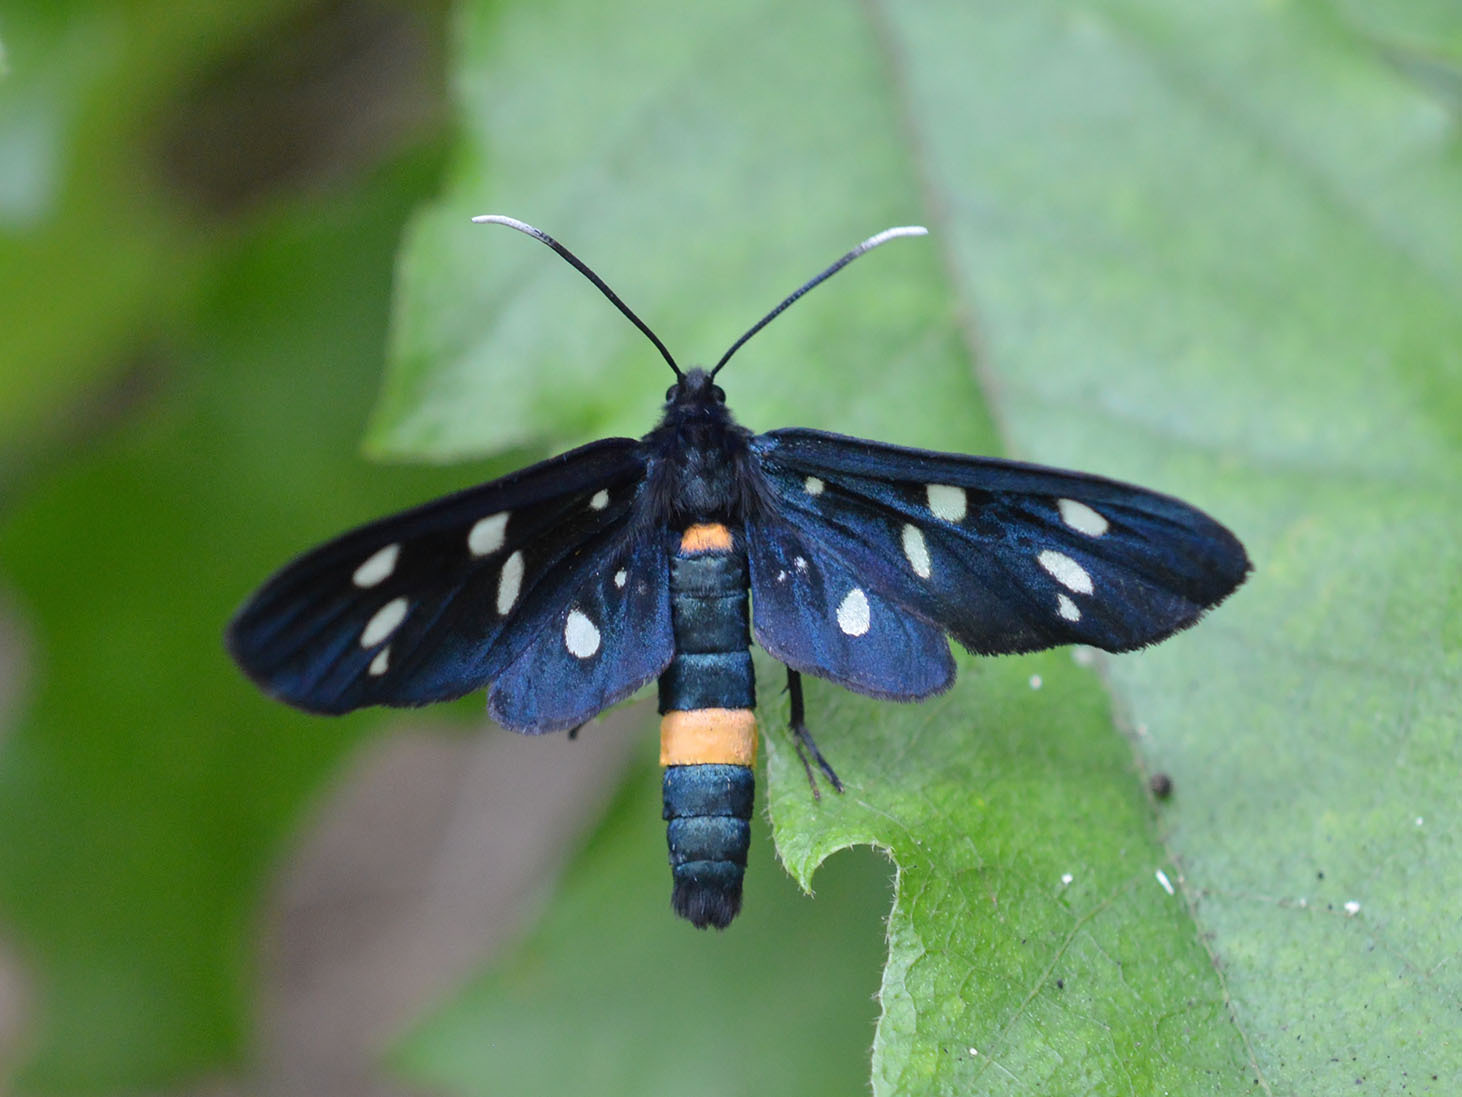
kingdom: Animalia
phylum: Arthropoda
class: Insecta
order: Lepidoptera
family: Erebidae
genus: Amata
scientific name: Amata phegea
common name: Nine-spotted
